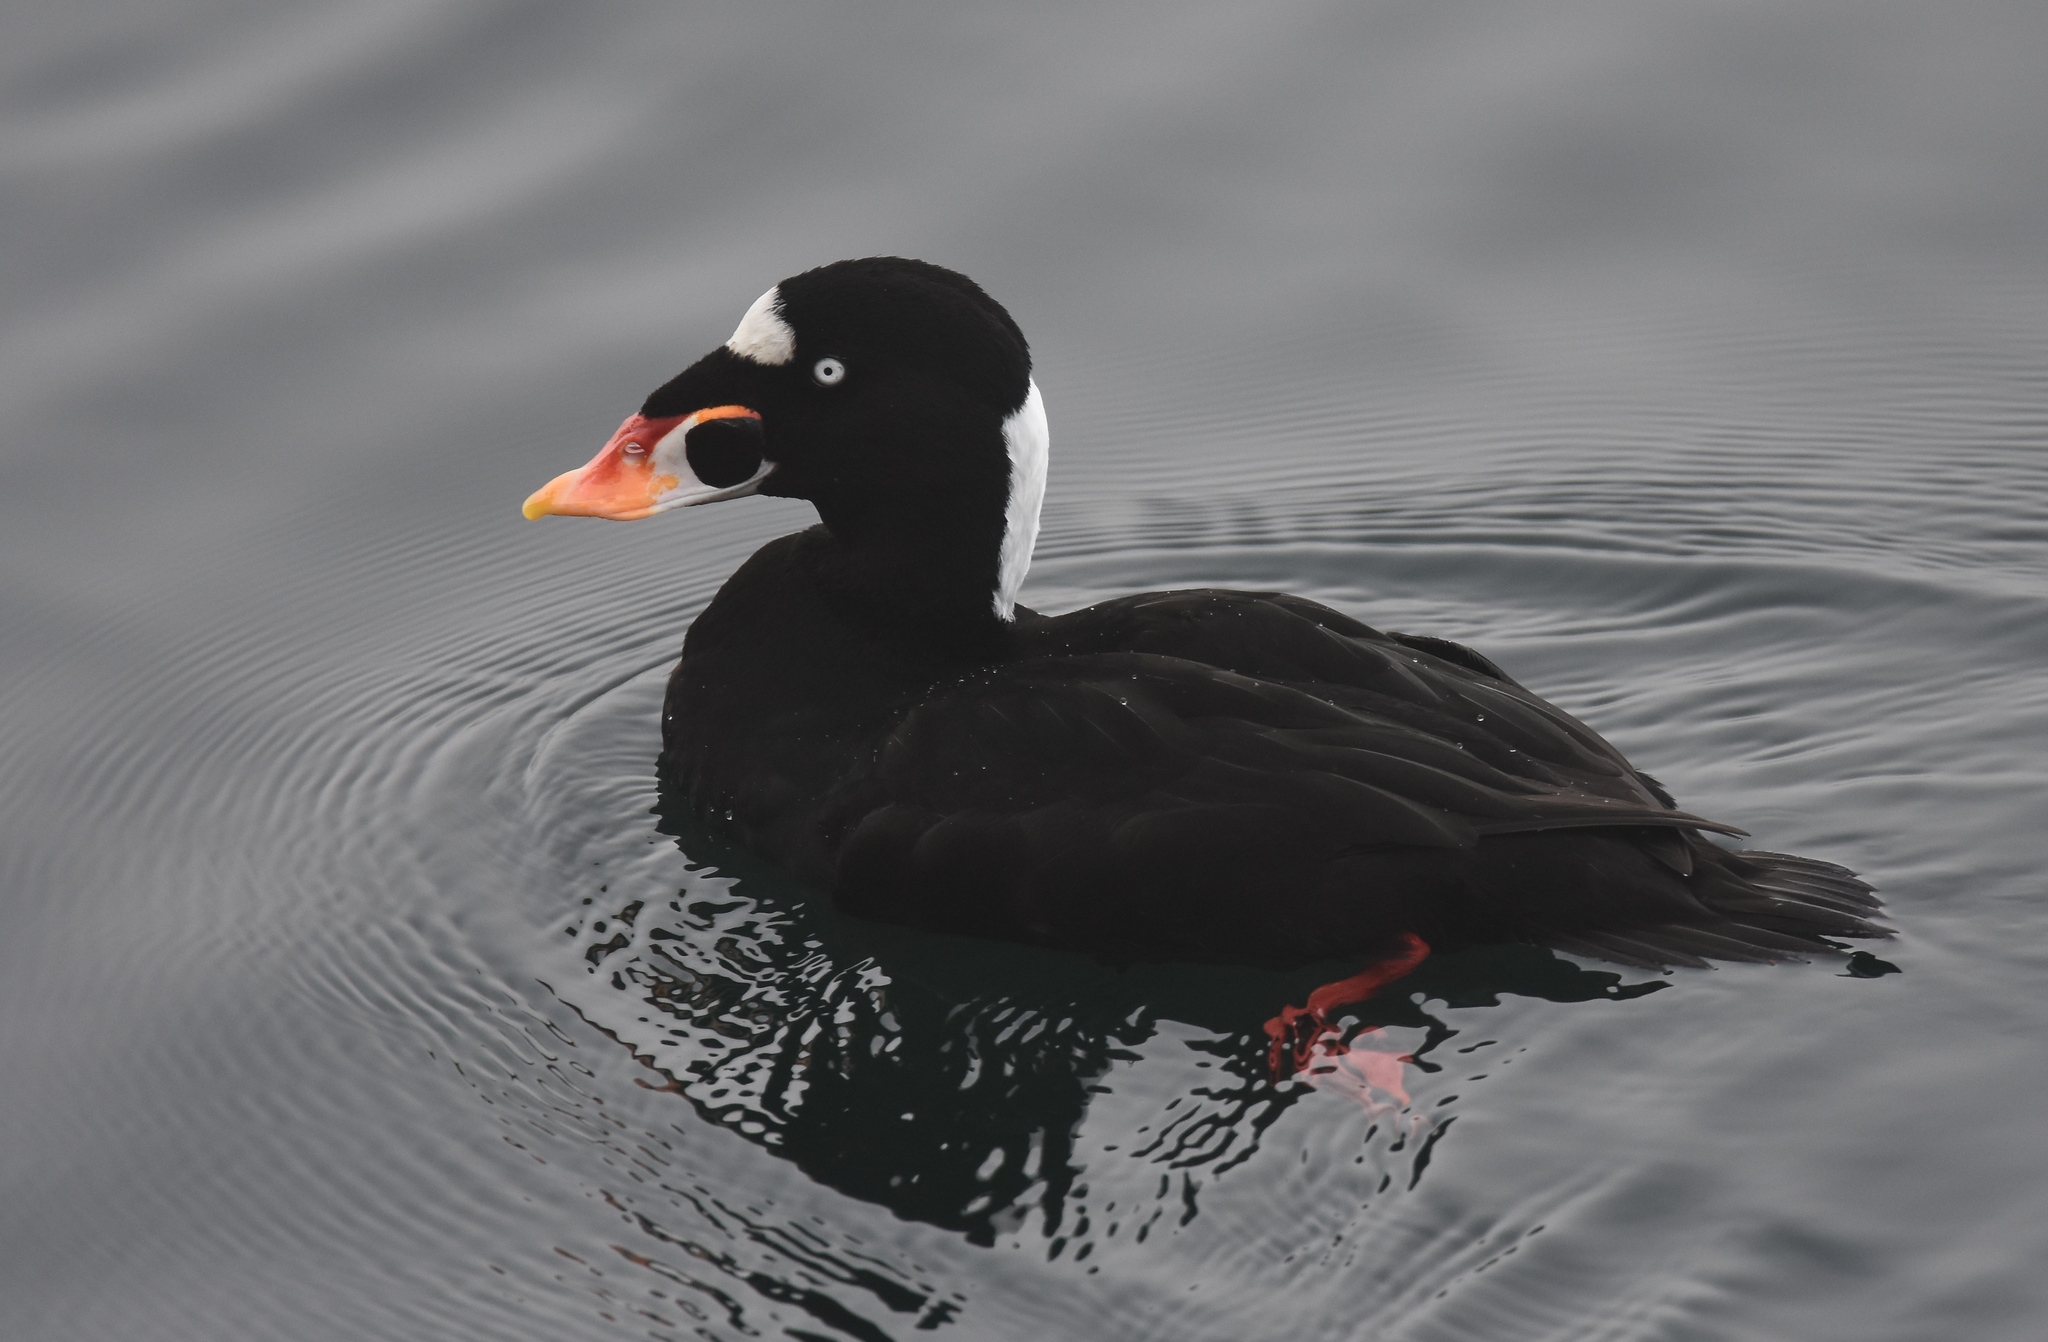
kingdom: Animalia
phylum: Chordata
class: Aves
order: Anseriformes
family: Anatidae
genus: Melanitta
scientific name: Melanitta perspicillata
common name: Surf scoter
